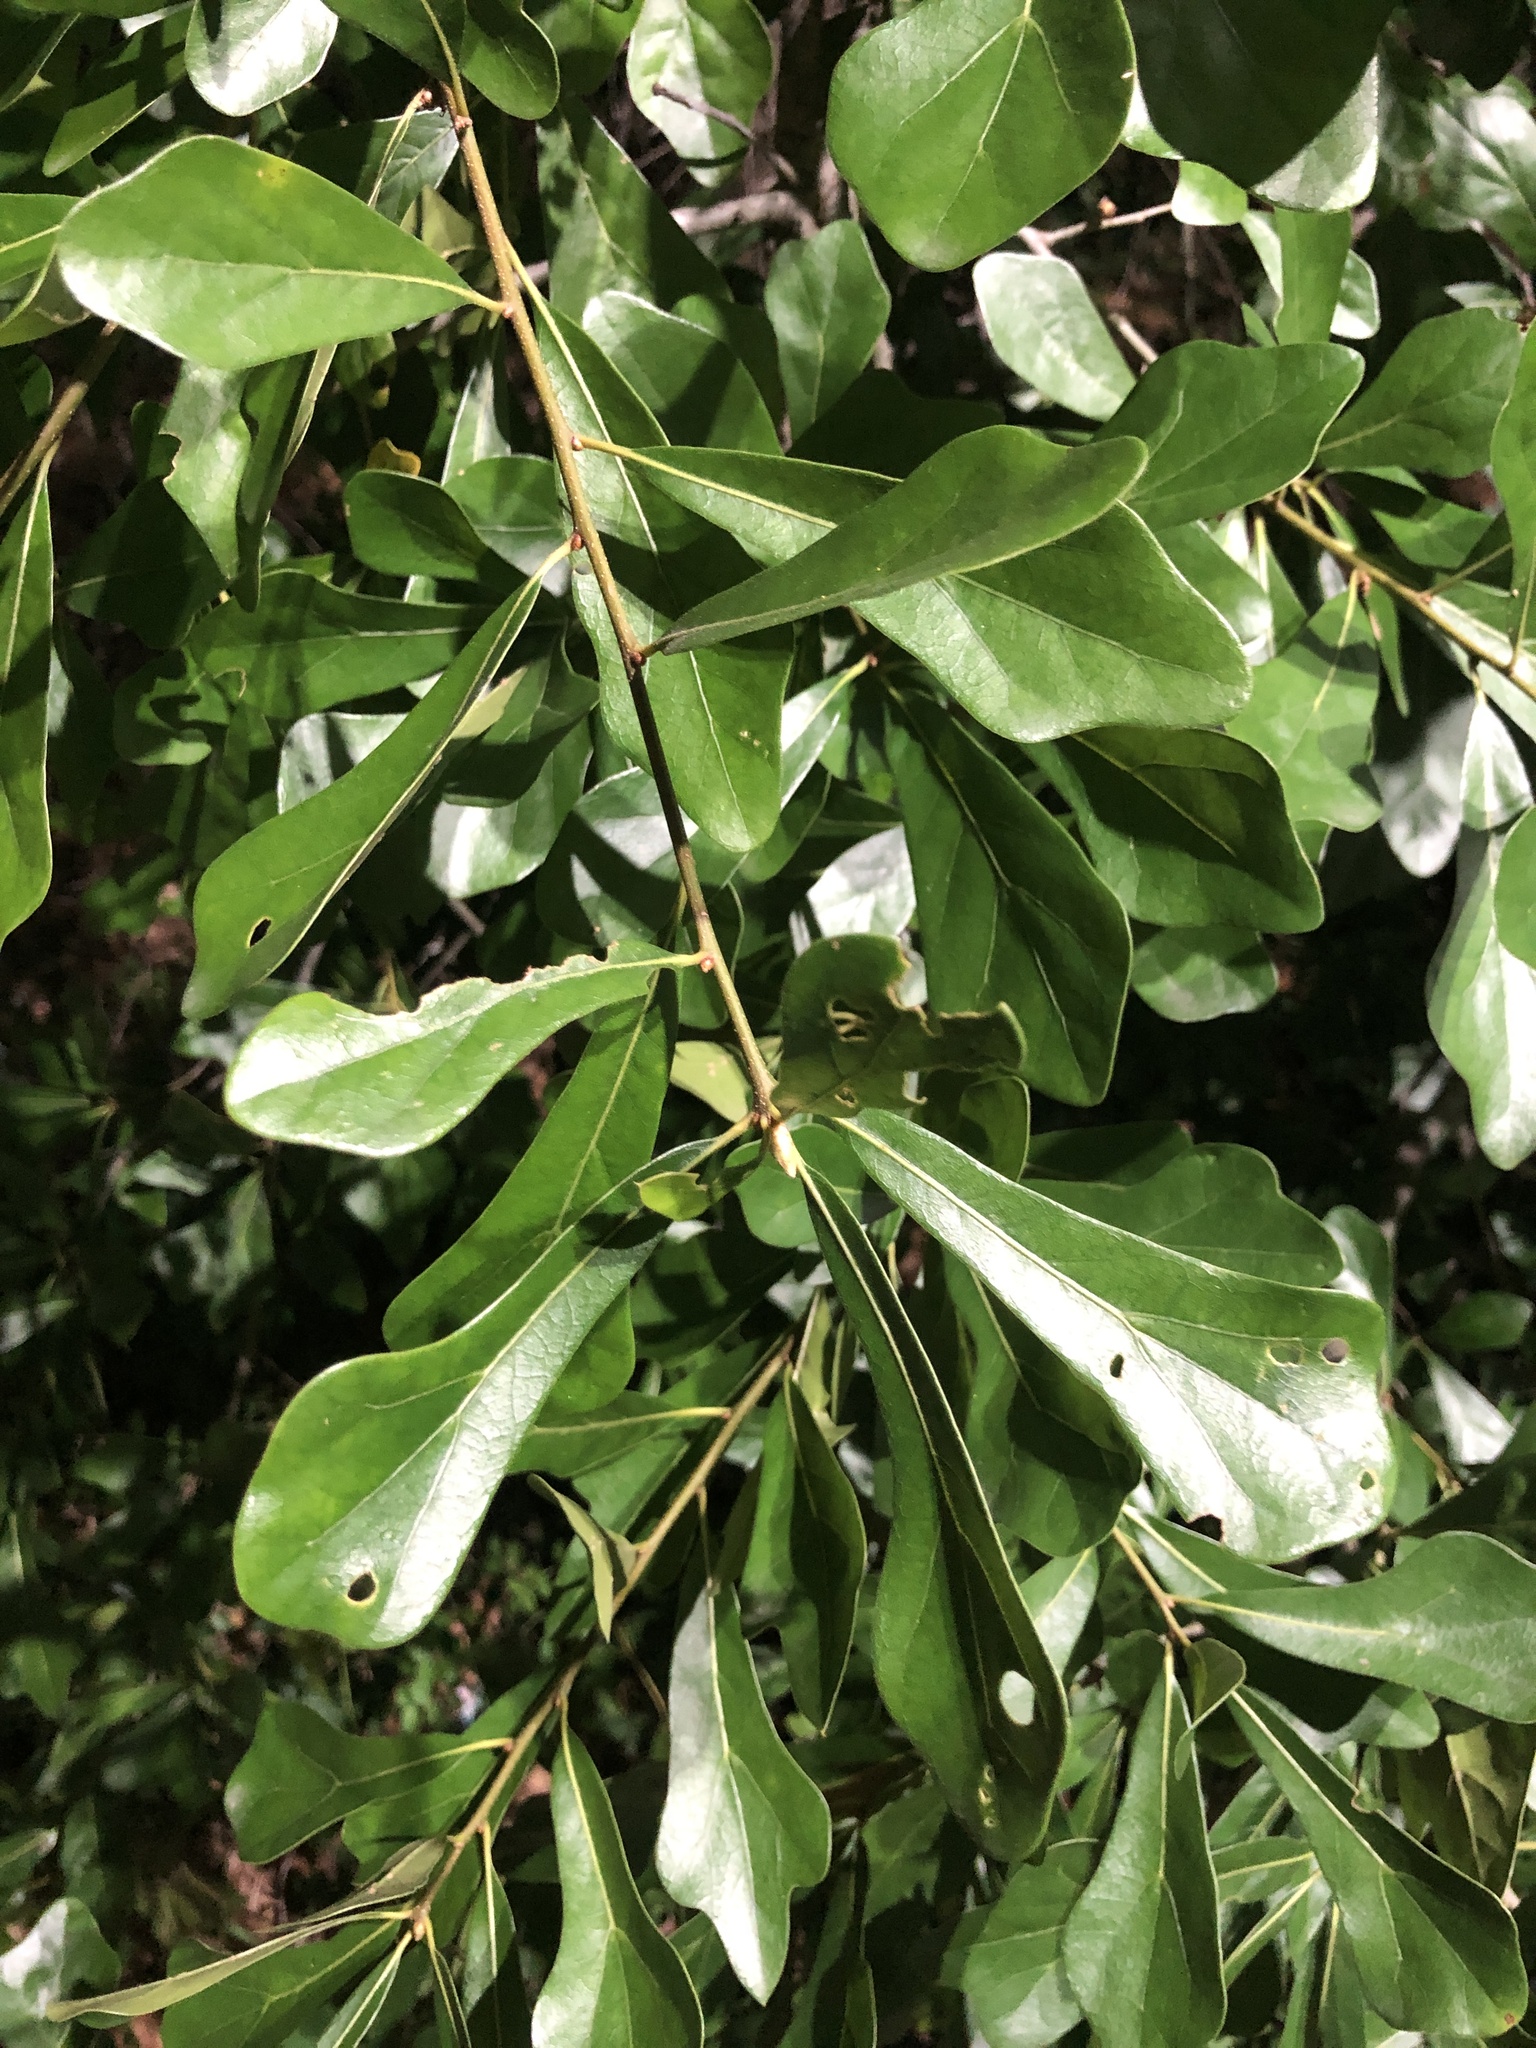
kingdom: Plantae
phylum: Tracheophyta
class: Magnoliopsida
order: Fagales
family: Fagaceae
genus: Quercus
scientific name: Quercus nigra
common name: Water oak
